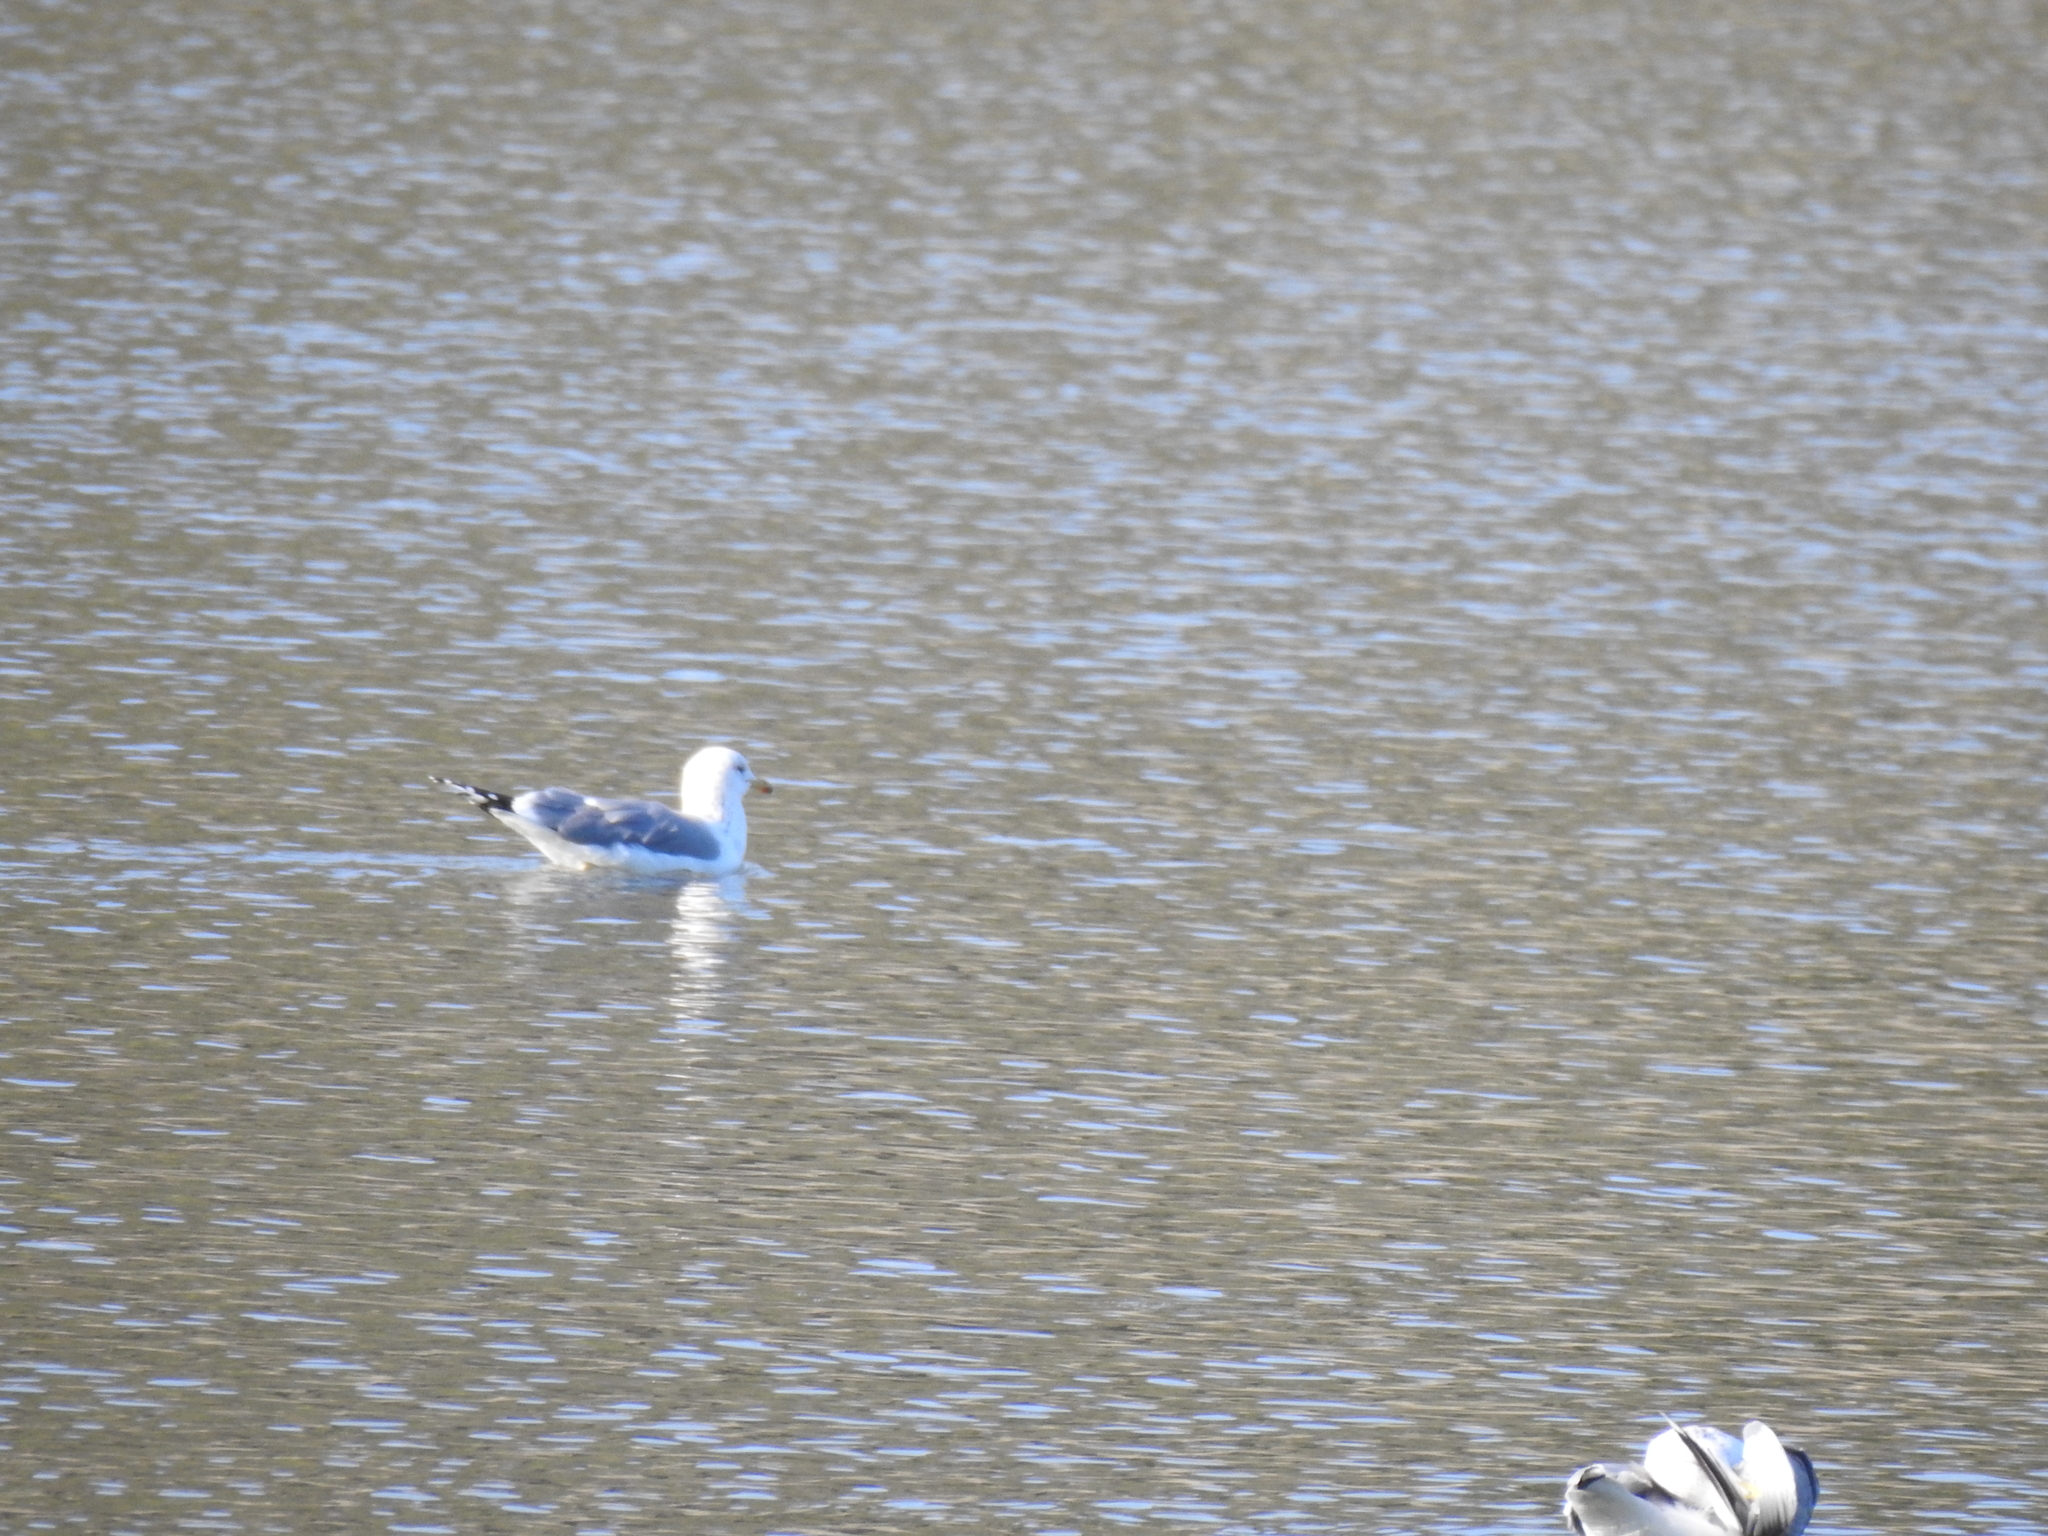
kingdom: Animalia
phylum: Chordata
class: Aves
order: Charadriiformes
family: Laridae
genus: Larus
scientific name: Larus californicus
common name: California gull
